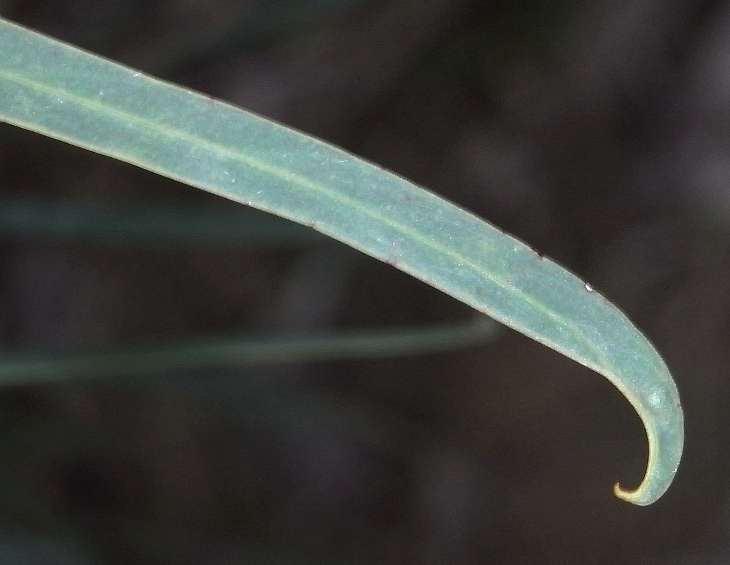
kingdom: Plantae
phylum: Tracheophyta
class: Magnoliopsida
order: Fabales
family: Fabaceae
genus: Acacia
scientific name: Acacia provincialis
